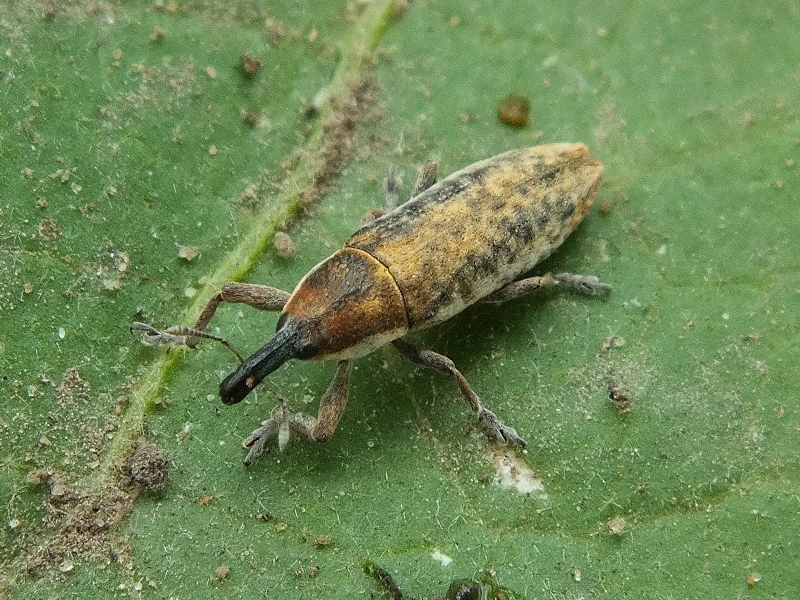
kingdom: Animalia
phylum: Arthropoda
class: Insecta
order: Coleoptera
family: Curculionidae
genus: Lixus
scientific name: Lixus subtilis
